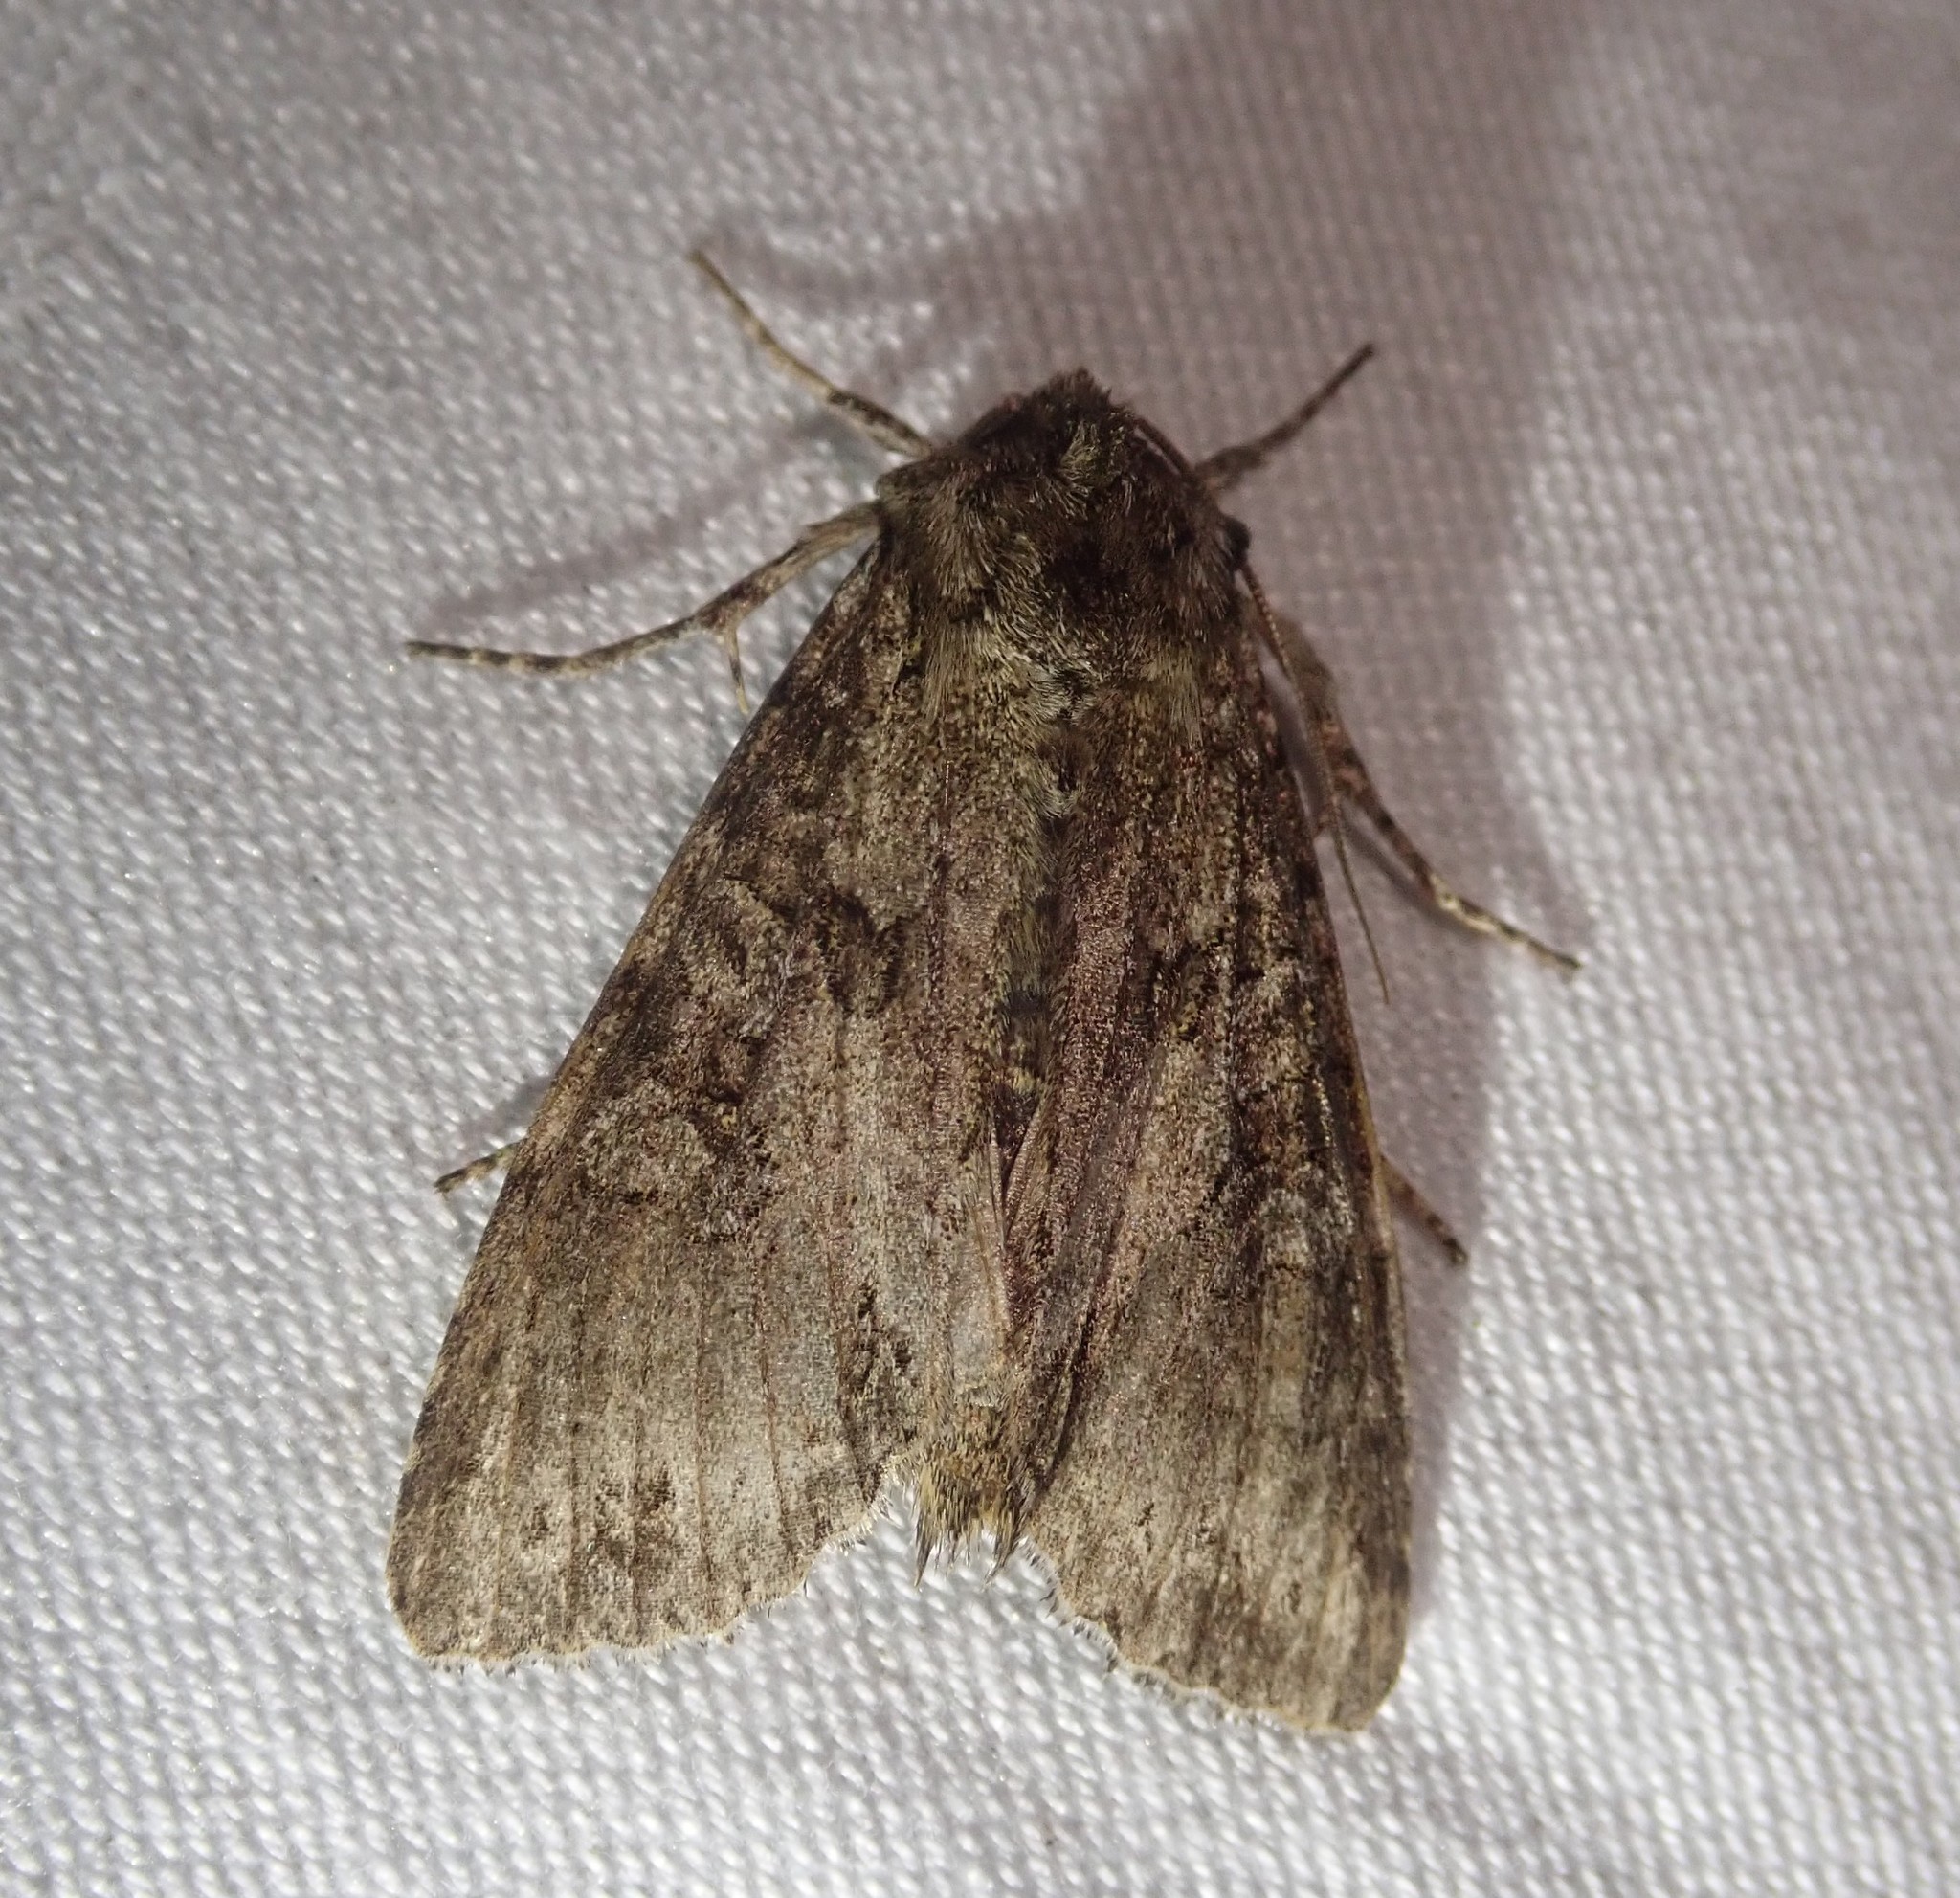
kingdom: Animalia
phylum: Arthropoda
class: Insecta
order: Lepidoptera
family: Noctuidae
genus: Polia
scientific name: Polia nebulosa
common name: Grey arches
